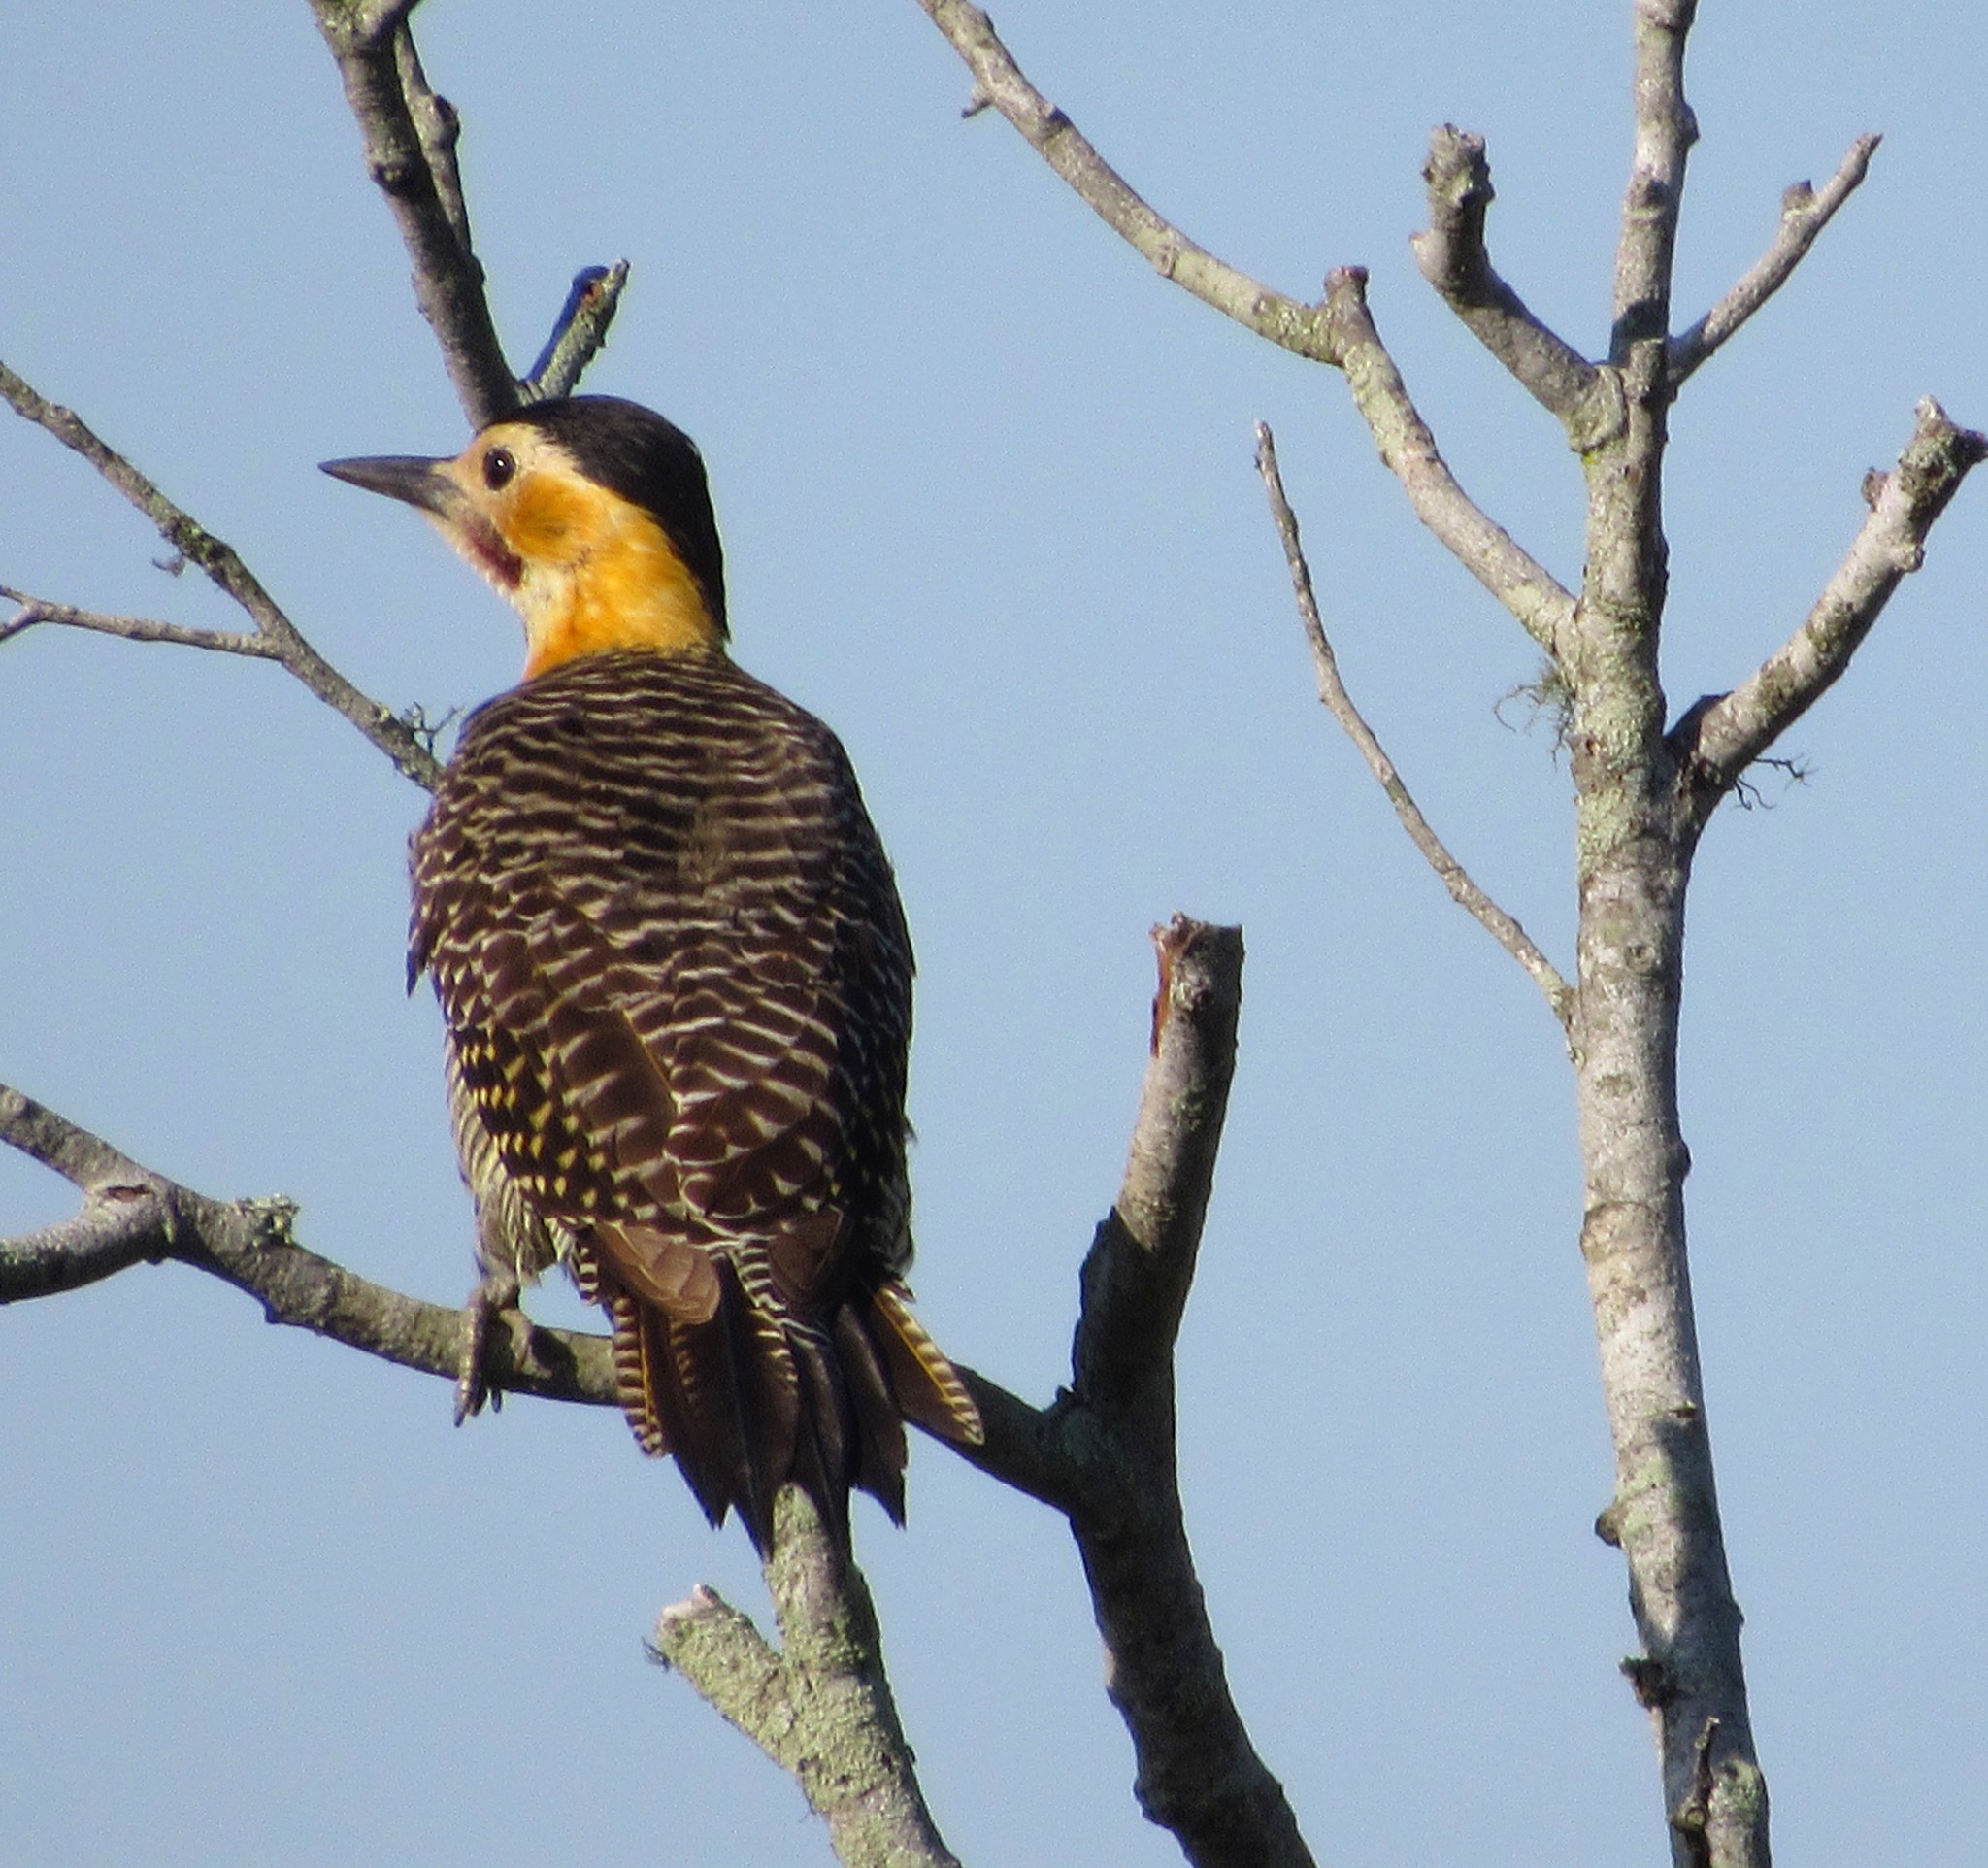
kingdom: Animalia
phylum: Chordata
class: Aves
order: Piciformes
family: Picidae
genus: Colaptes
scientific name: Colaptes campestris
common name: Campo flicker
